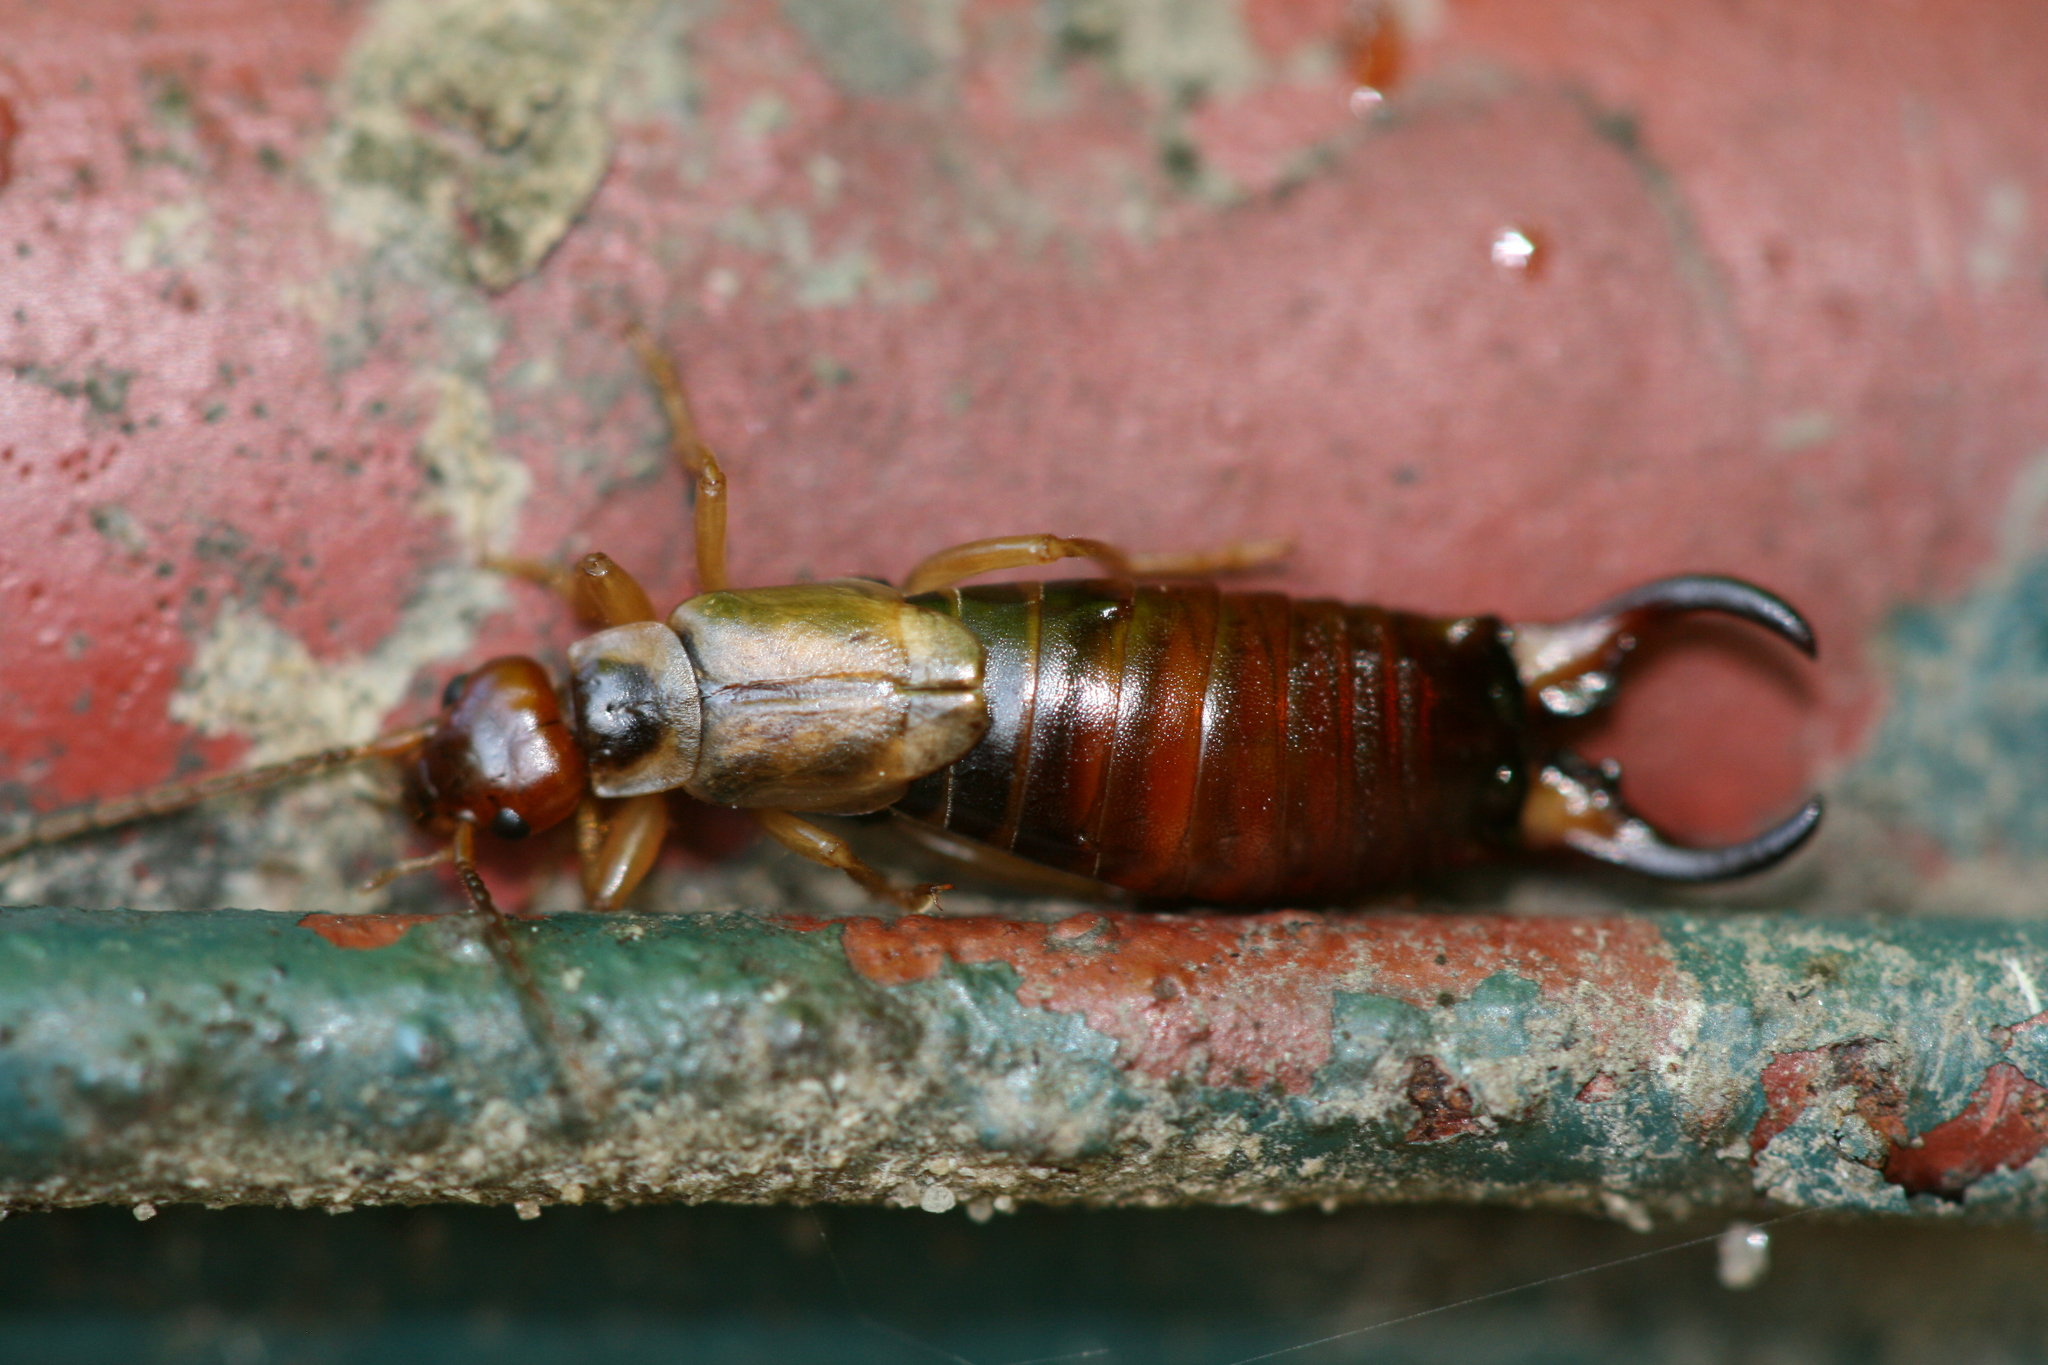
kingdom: Animalia
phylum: Arthropoda
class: Insecta
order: Dermaptera
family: Forficulidae
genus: Forficula
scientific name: Forficula
